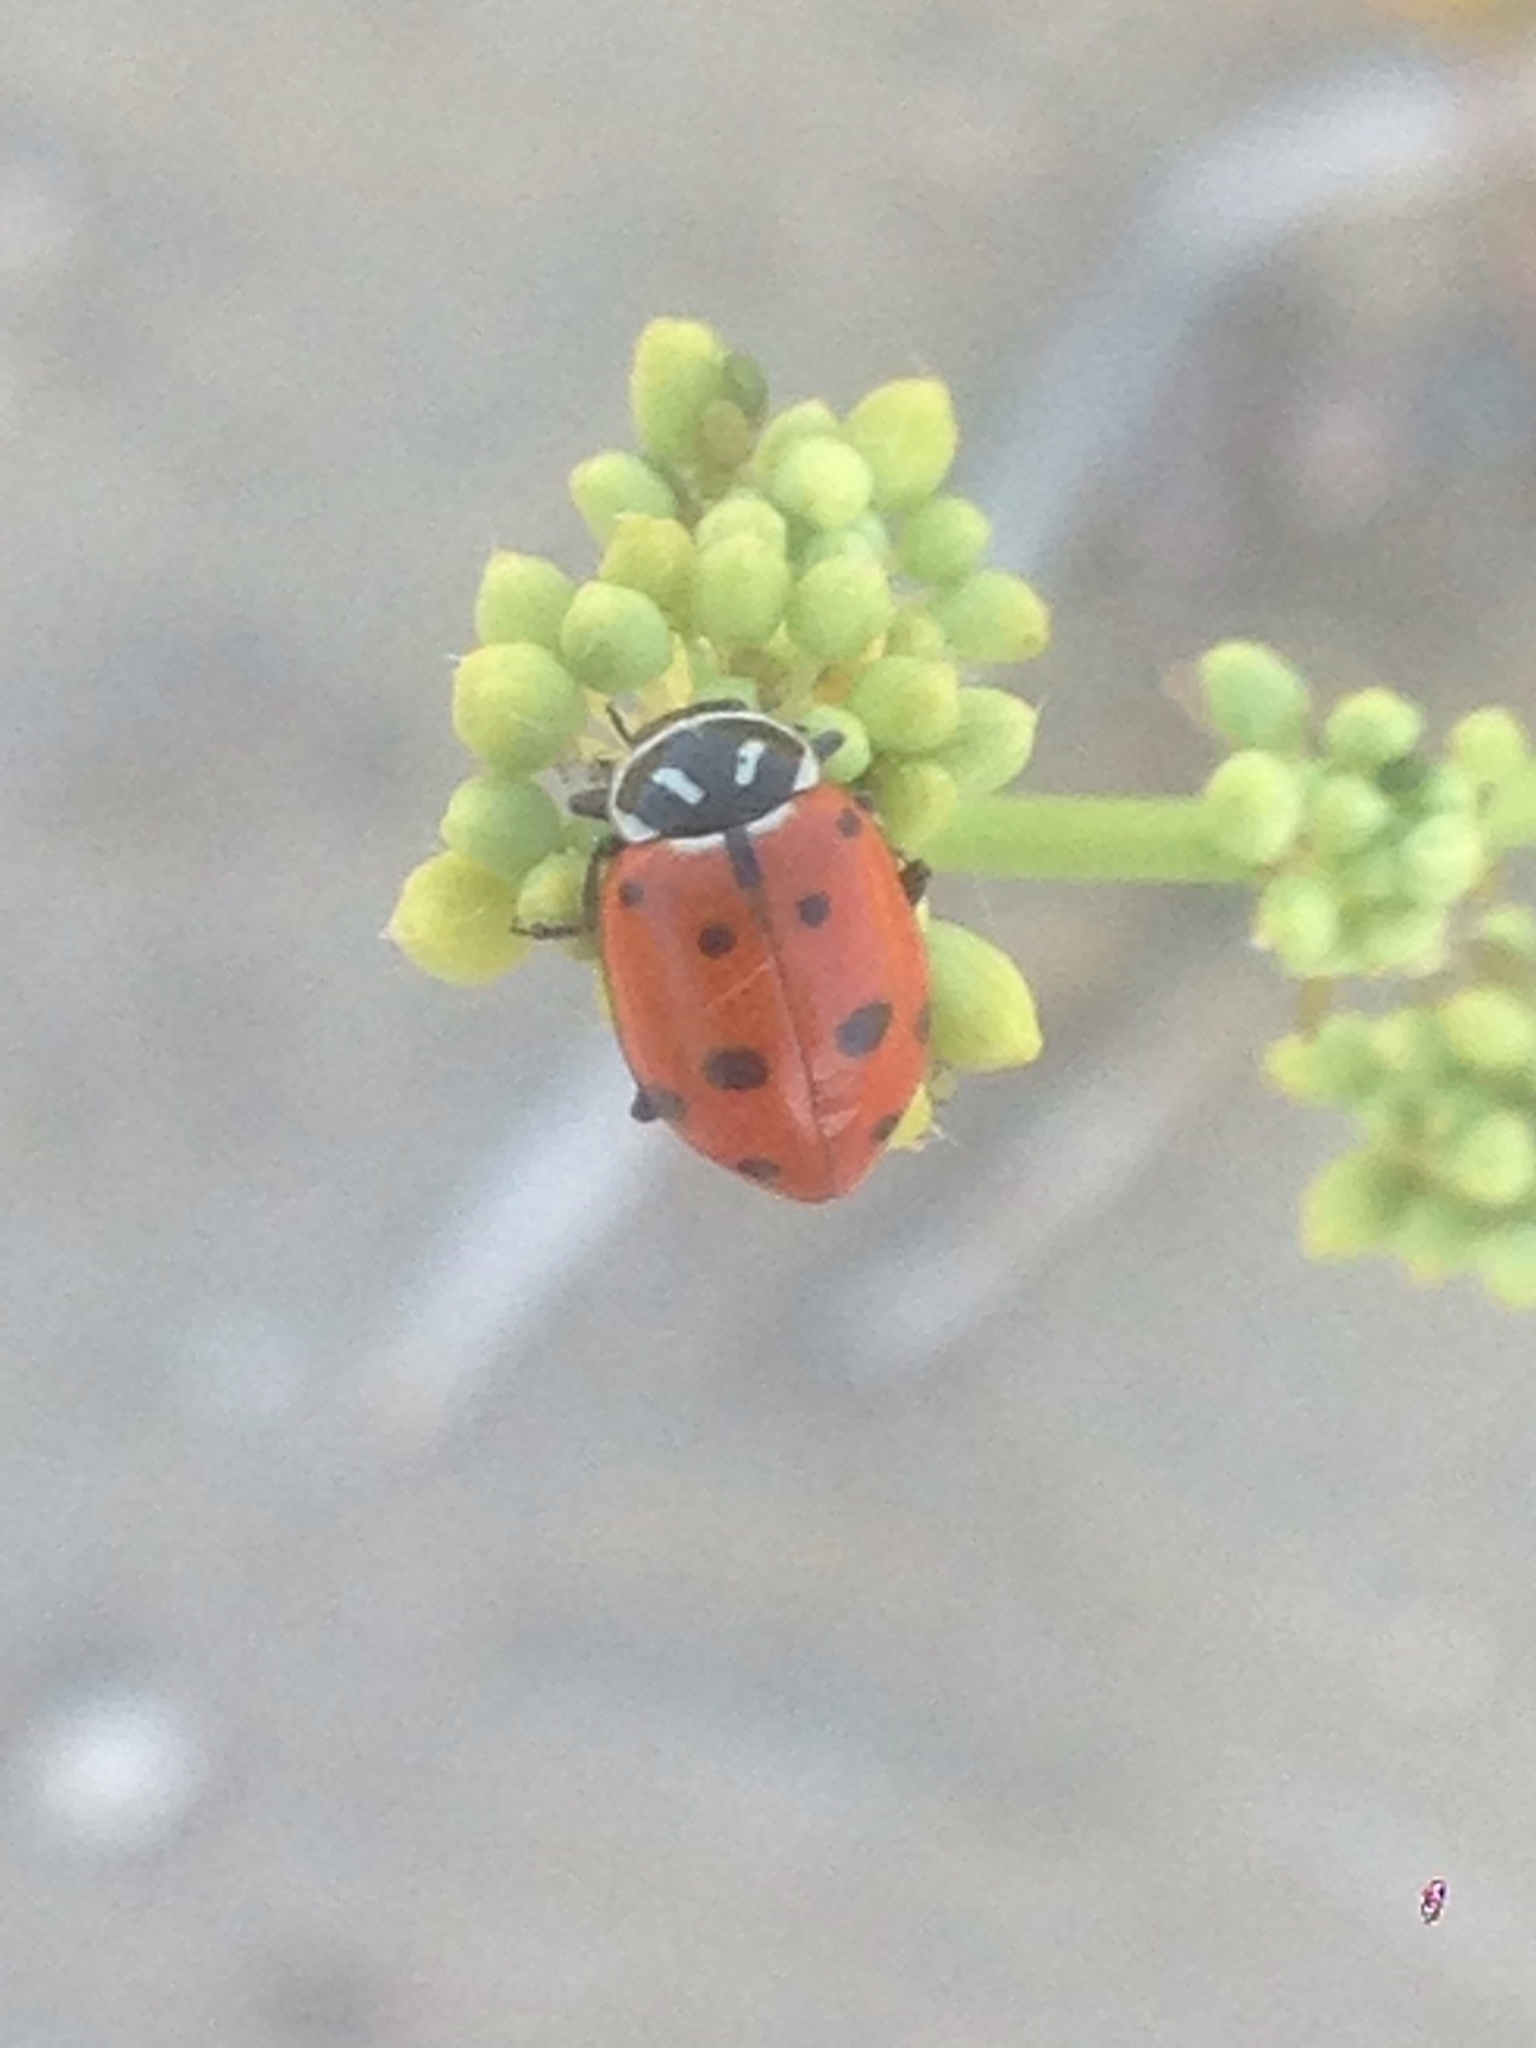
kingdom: Animalia
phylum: Arthropoda
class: Insecta
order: Coleoptera
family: Coccinellidae
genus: Hippodamia
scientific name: Hippodamia convergens
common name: Convergent lady beetle
